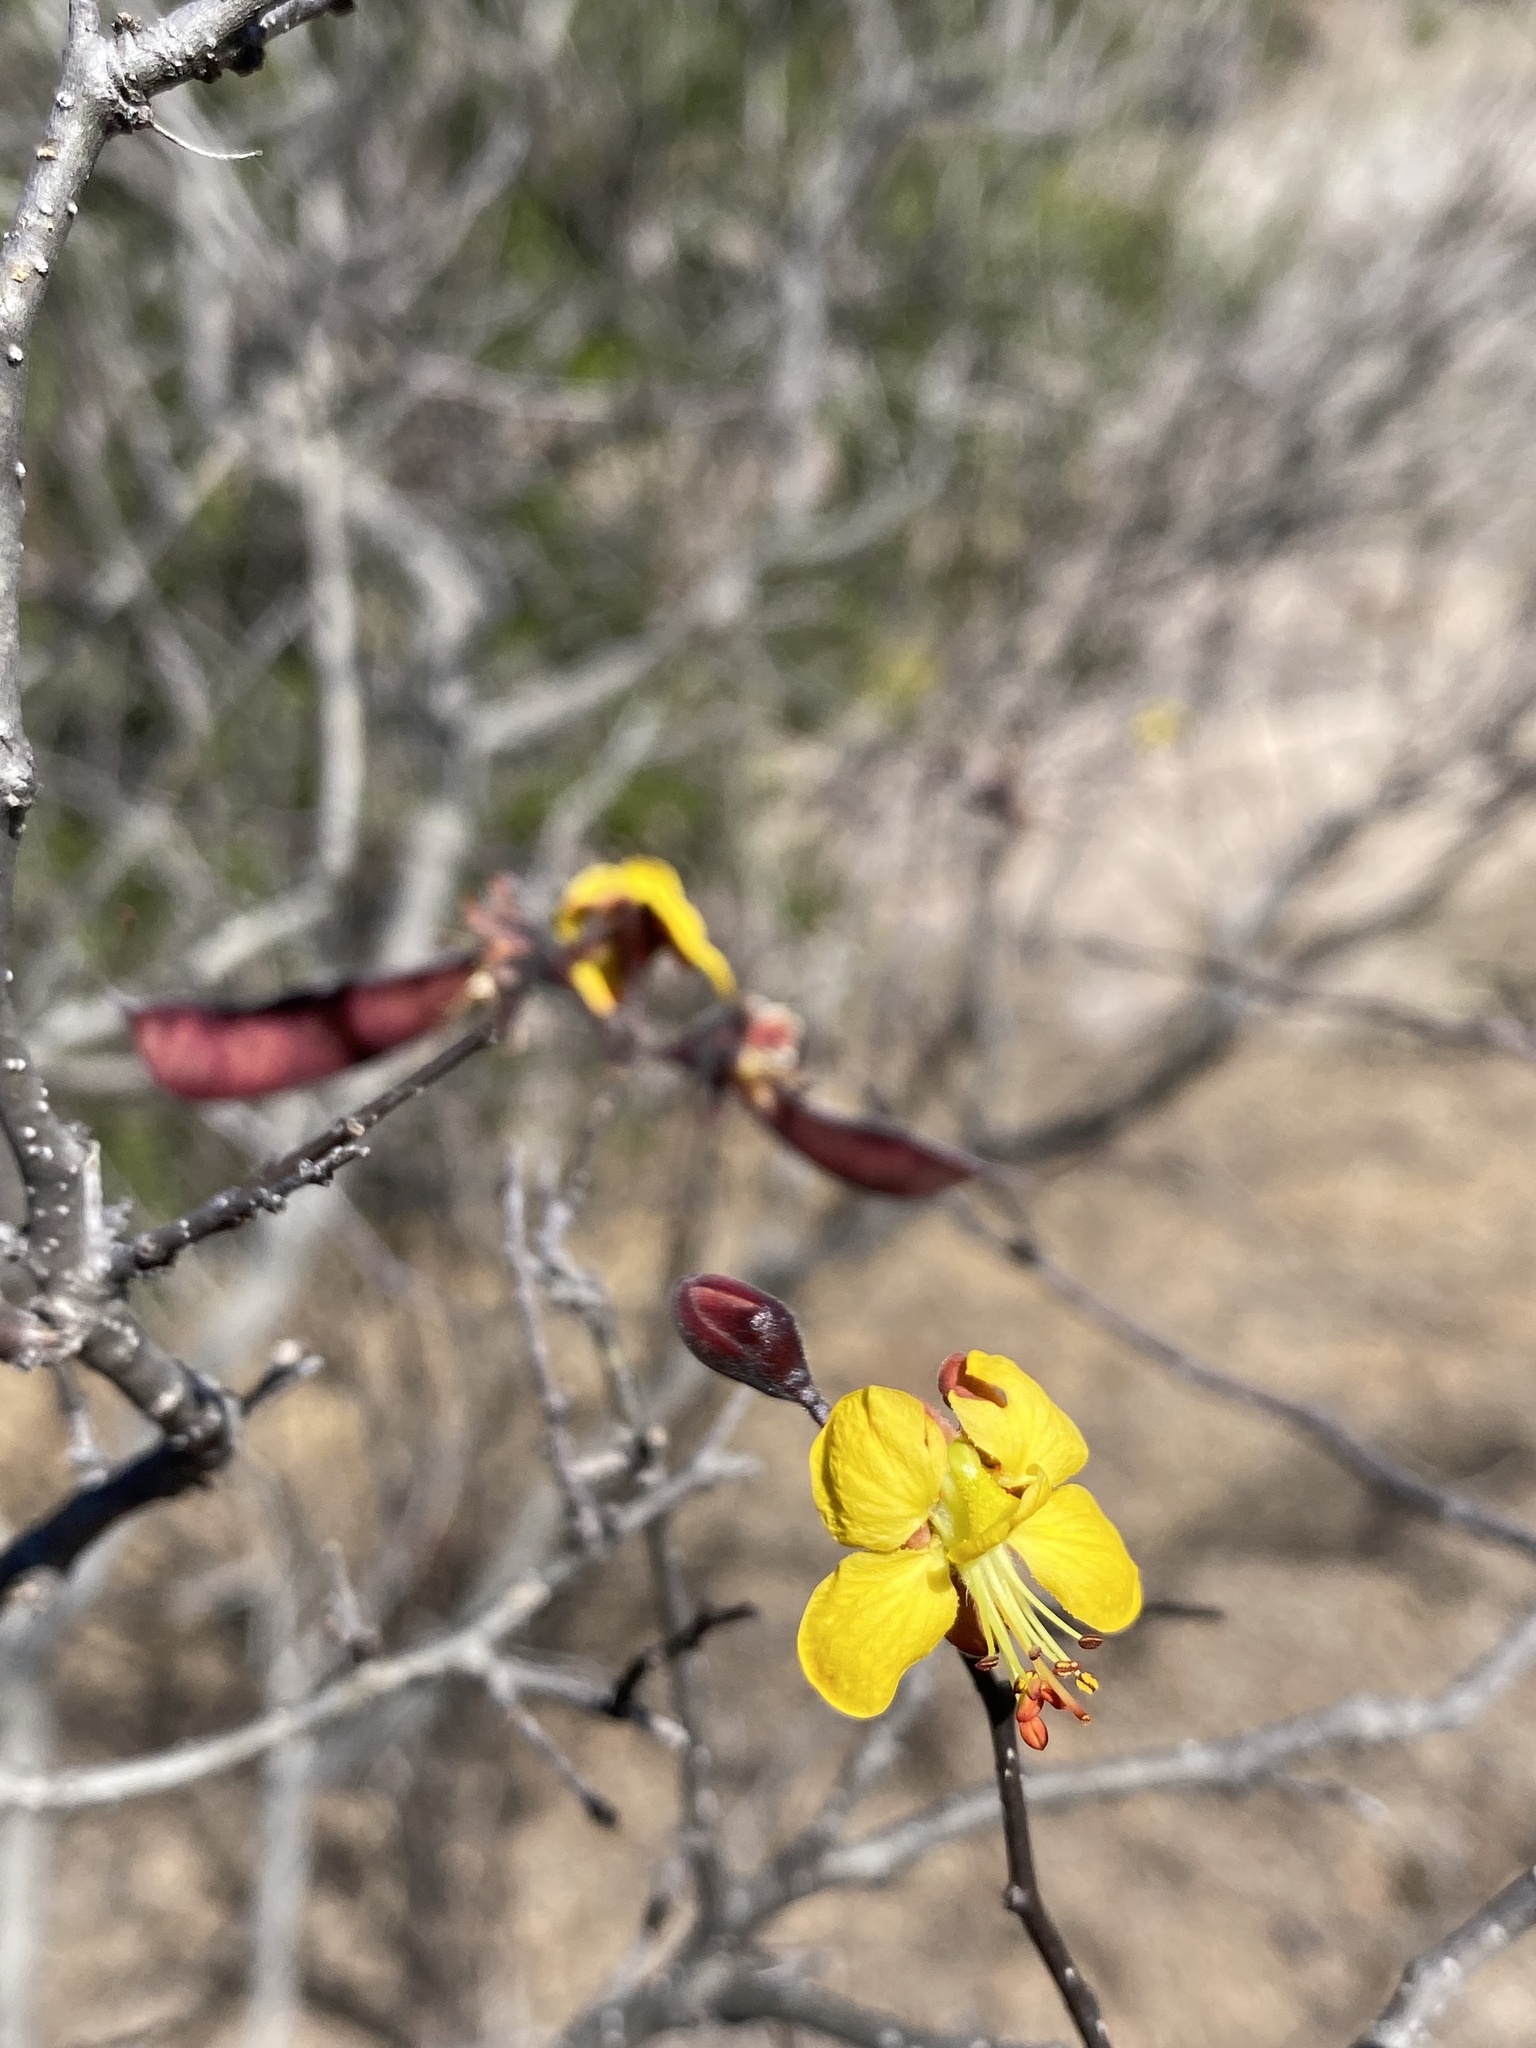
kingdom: Plantae
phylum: Tracheophyta
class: Magnoliopsida
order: Fabales
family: Fabaceae
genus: Erythrostemon
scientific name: Erythrostemon palmeri
